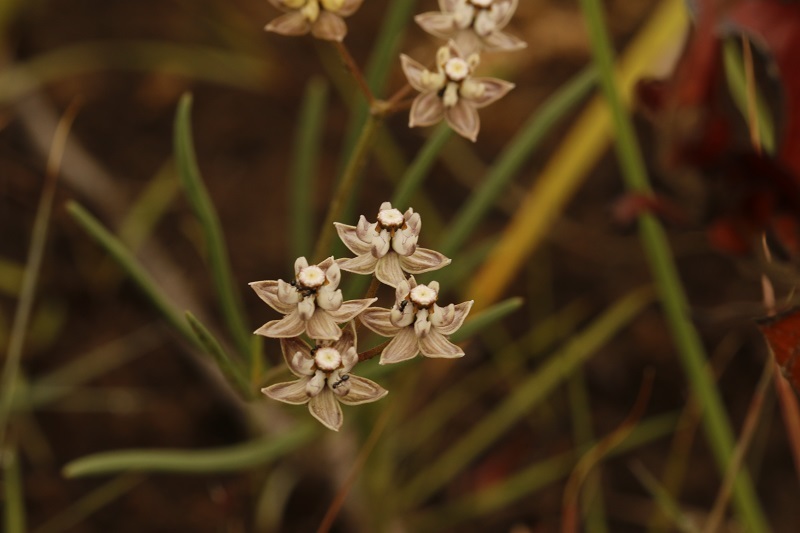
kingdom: Plantae
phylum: Tracheophyta
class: Magnoliopsida
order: Gentianales
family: Apocynaceae
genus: Asclepias
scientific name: Asclepias cucullata
